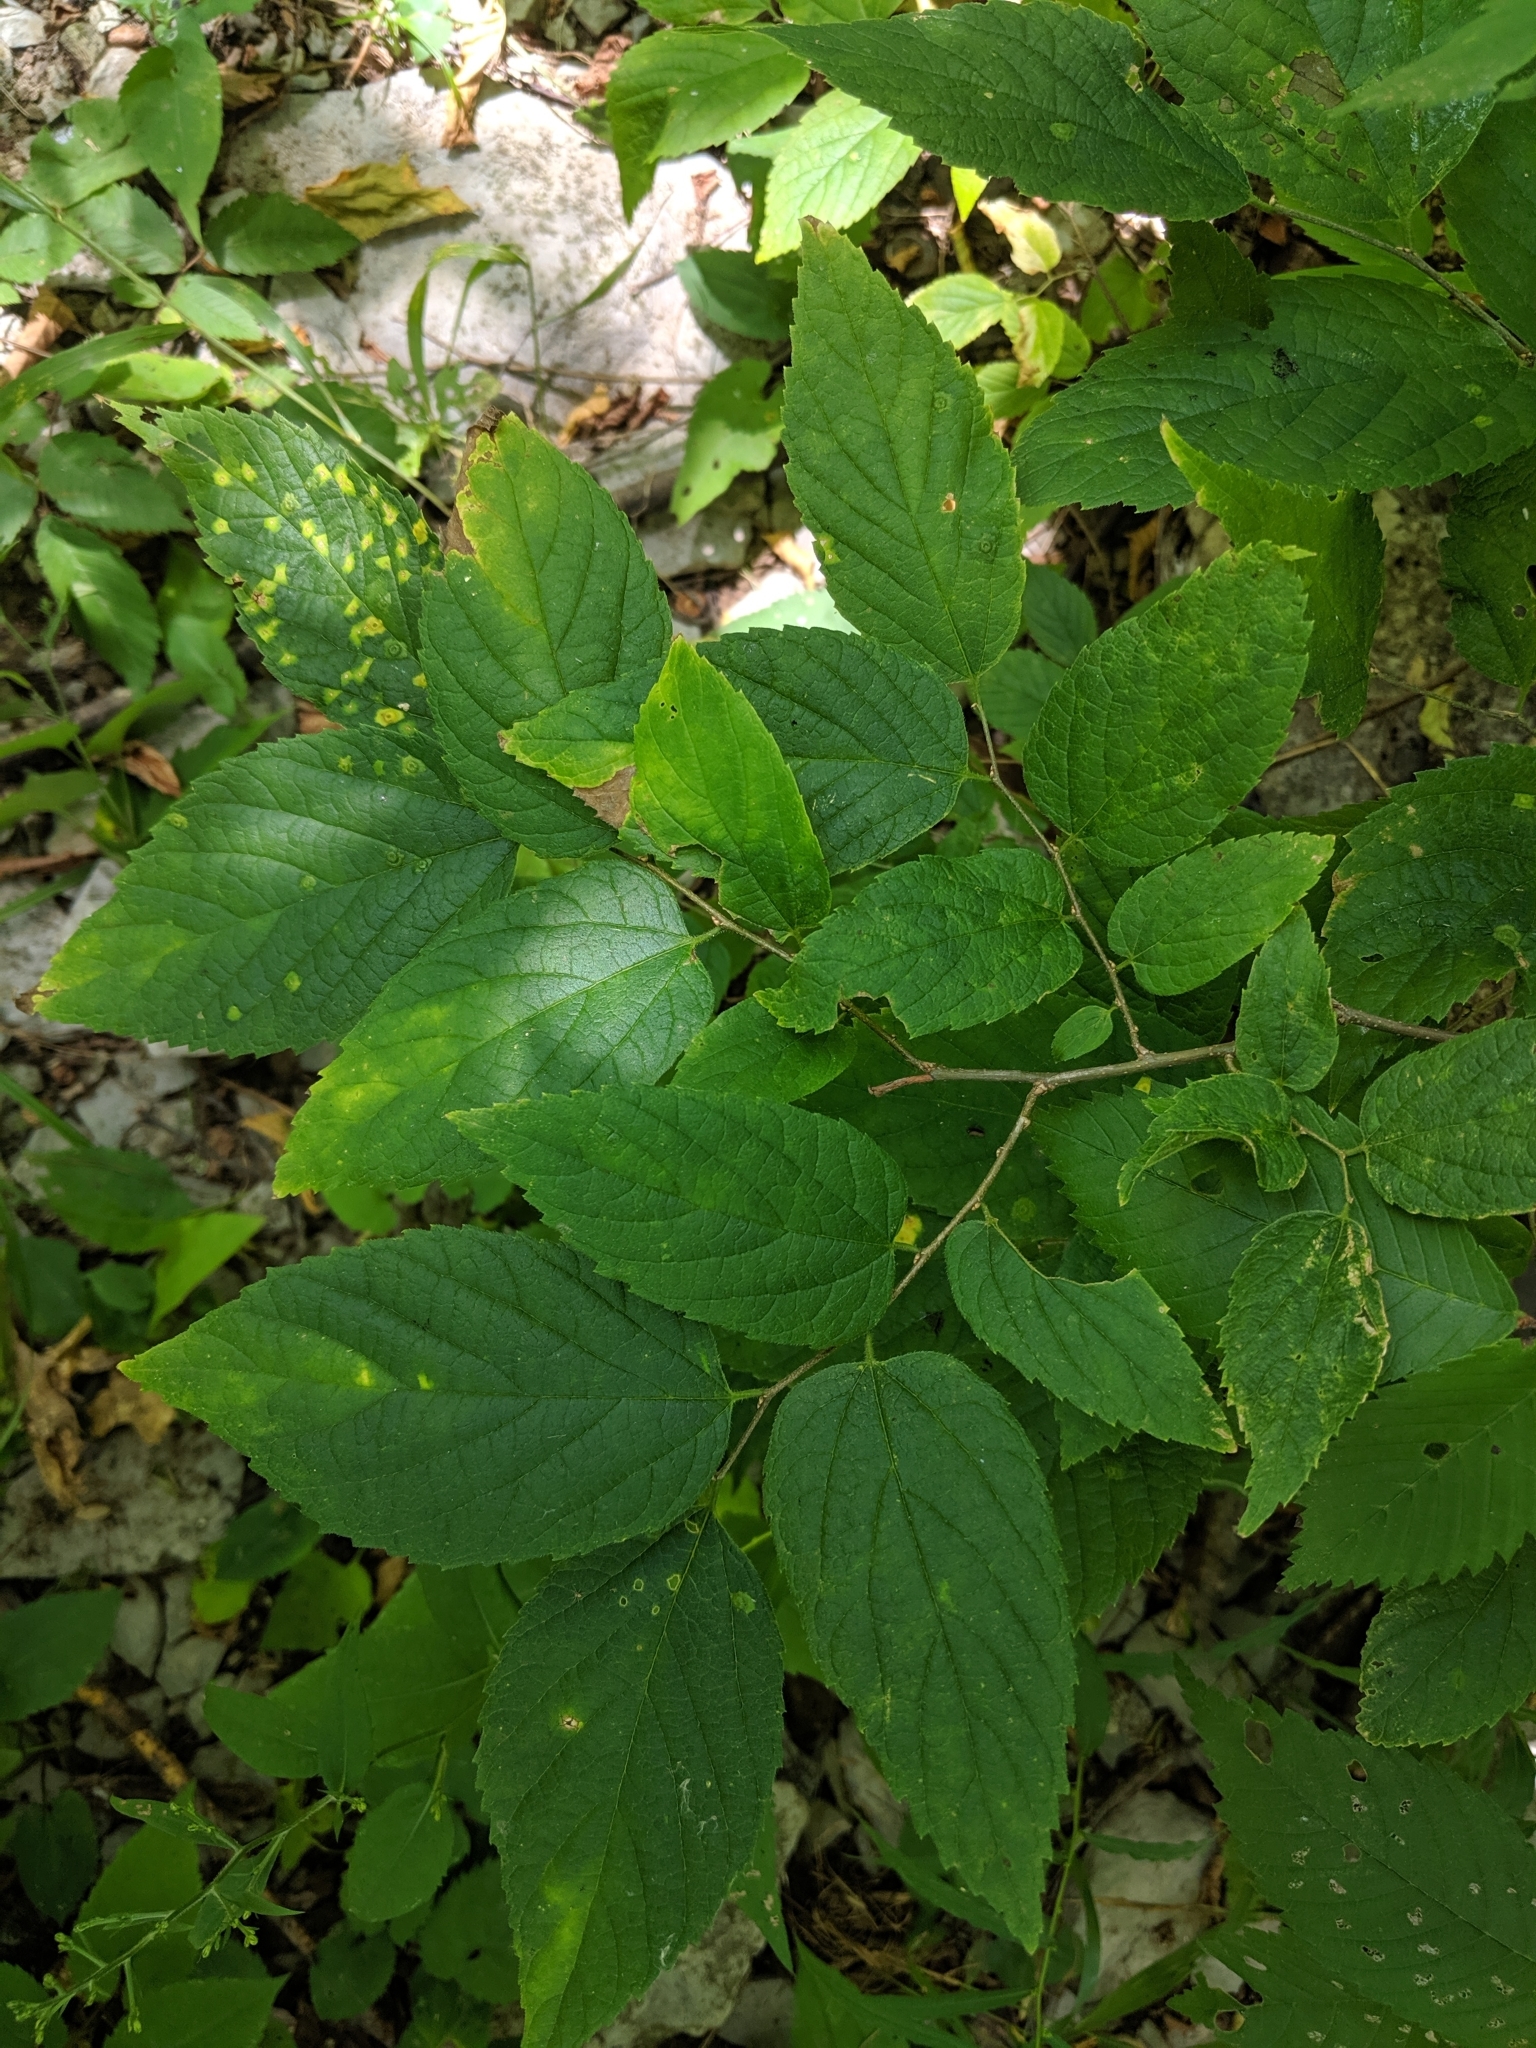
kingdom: Plantae
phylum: Tracheophyta
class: Magnoliopsida
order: Rosales
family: Cannabaceae
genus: Celtis
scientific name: Celtis occidentalis
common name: Common hackberry
